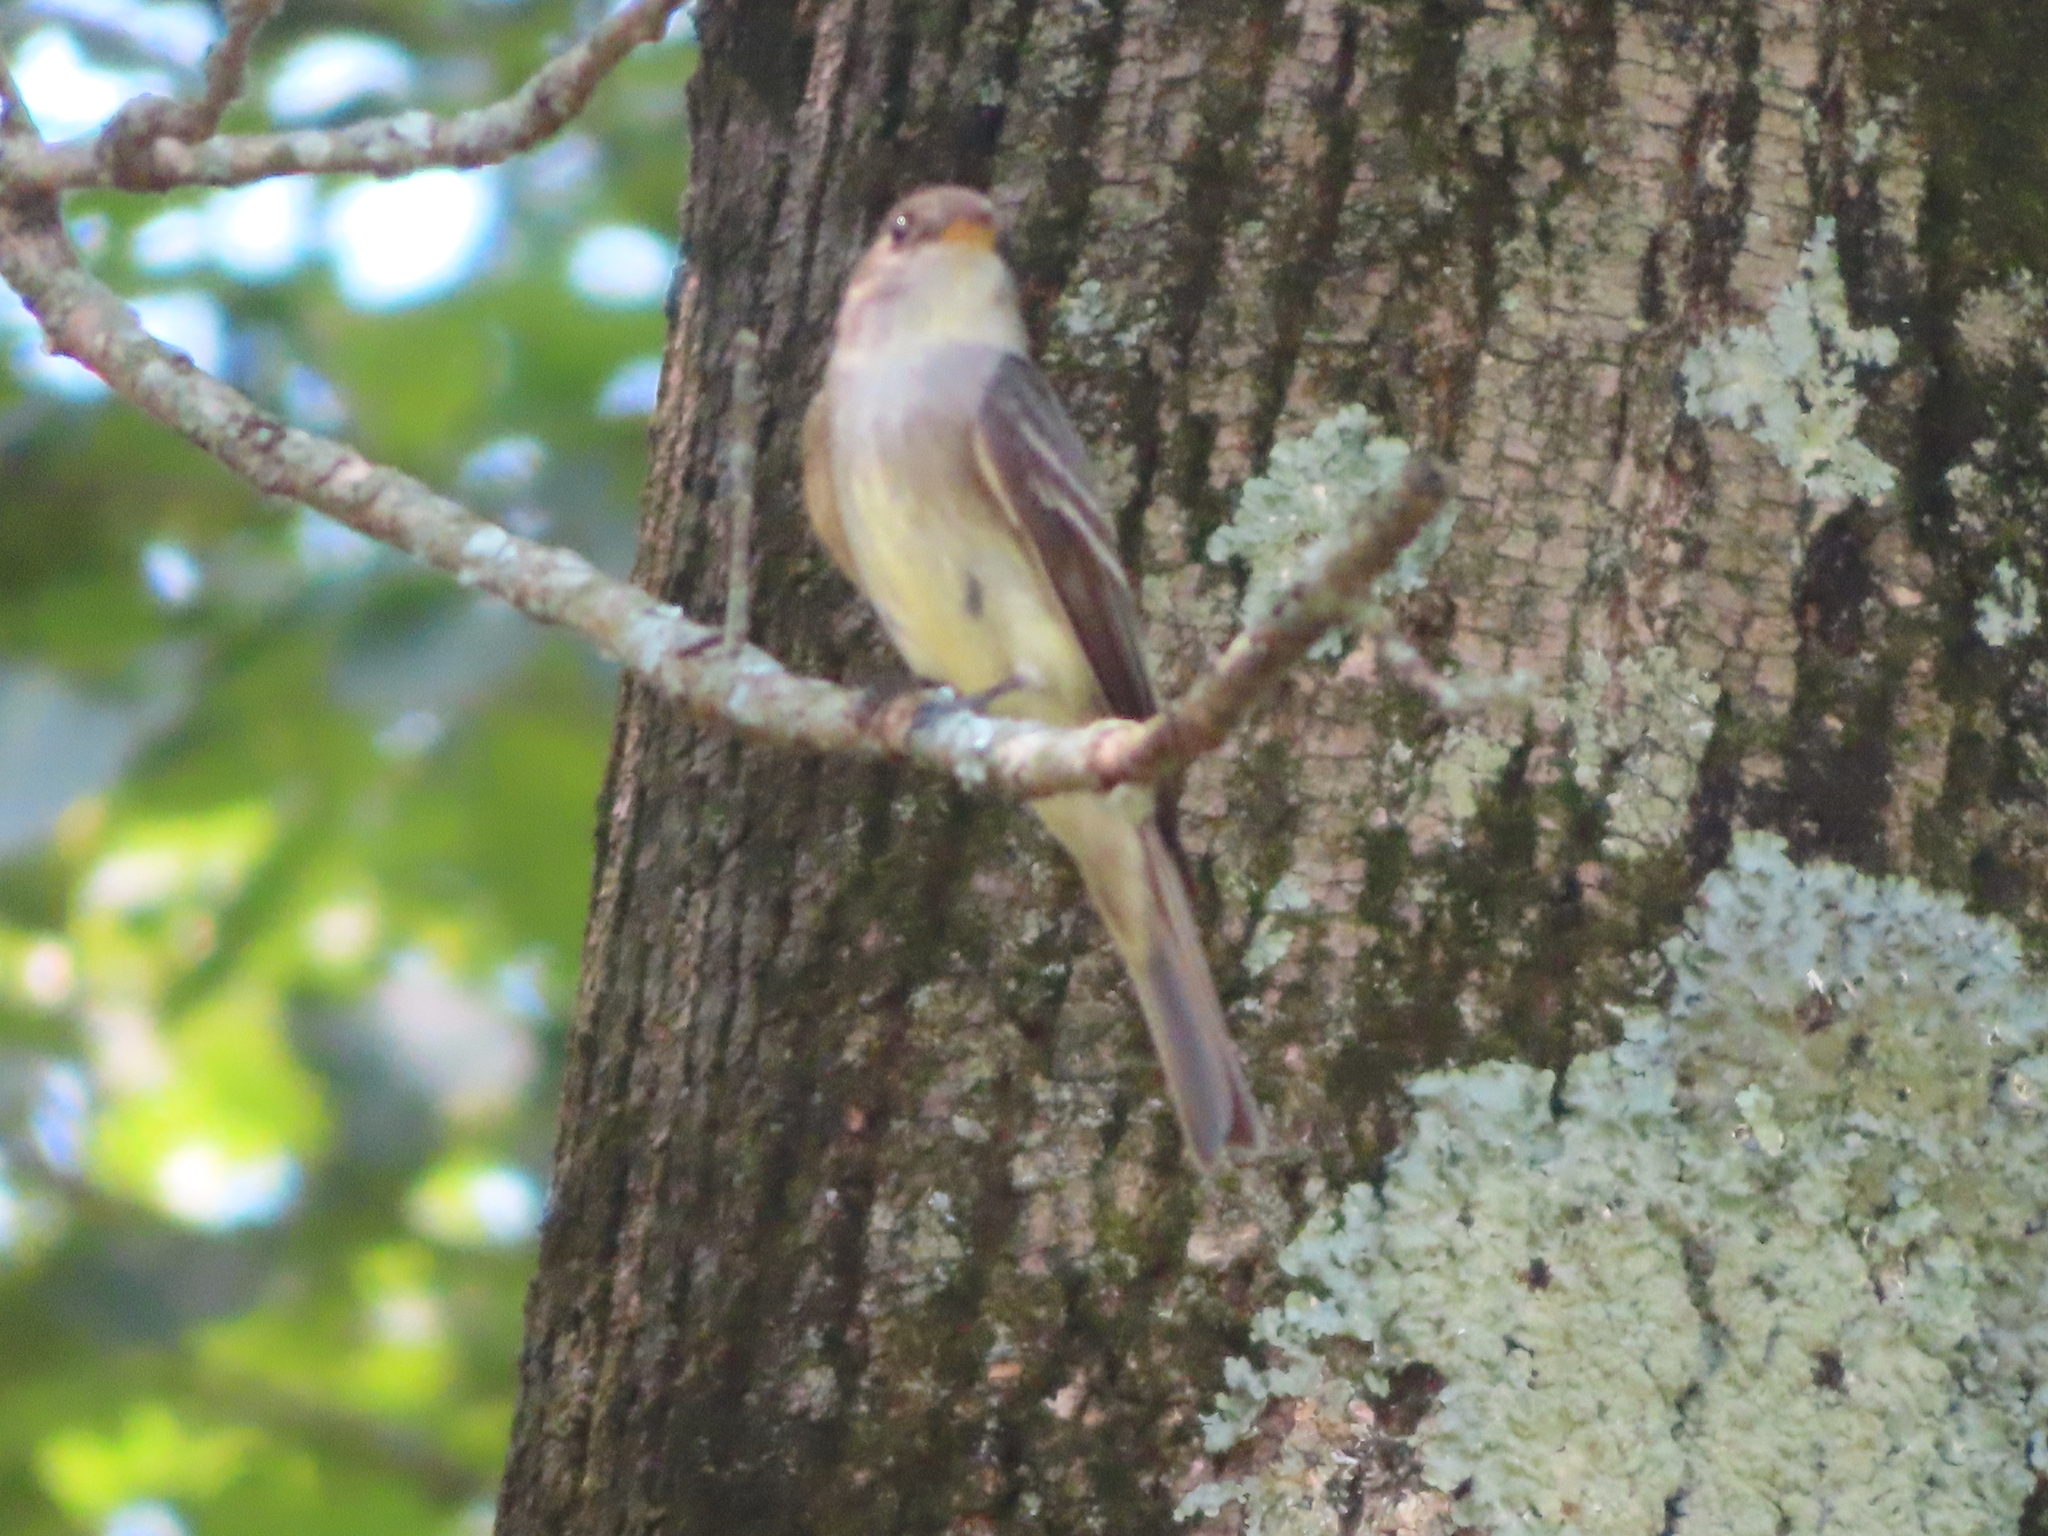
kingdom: Animalia
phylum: Chordata
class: Aves
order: Passeriformes
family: Tyrannidae
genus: Contopus
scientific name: Contopus virens
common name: Eastern wood-pewee
